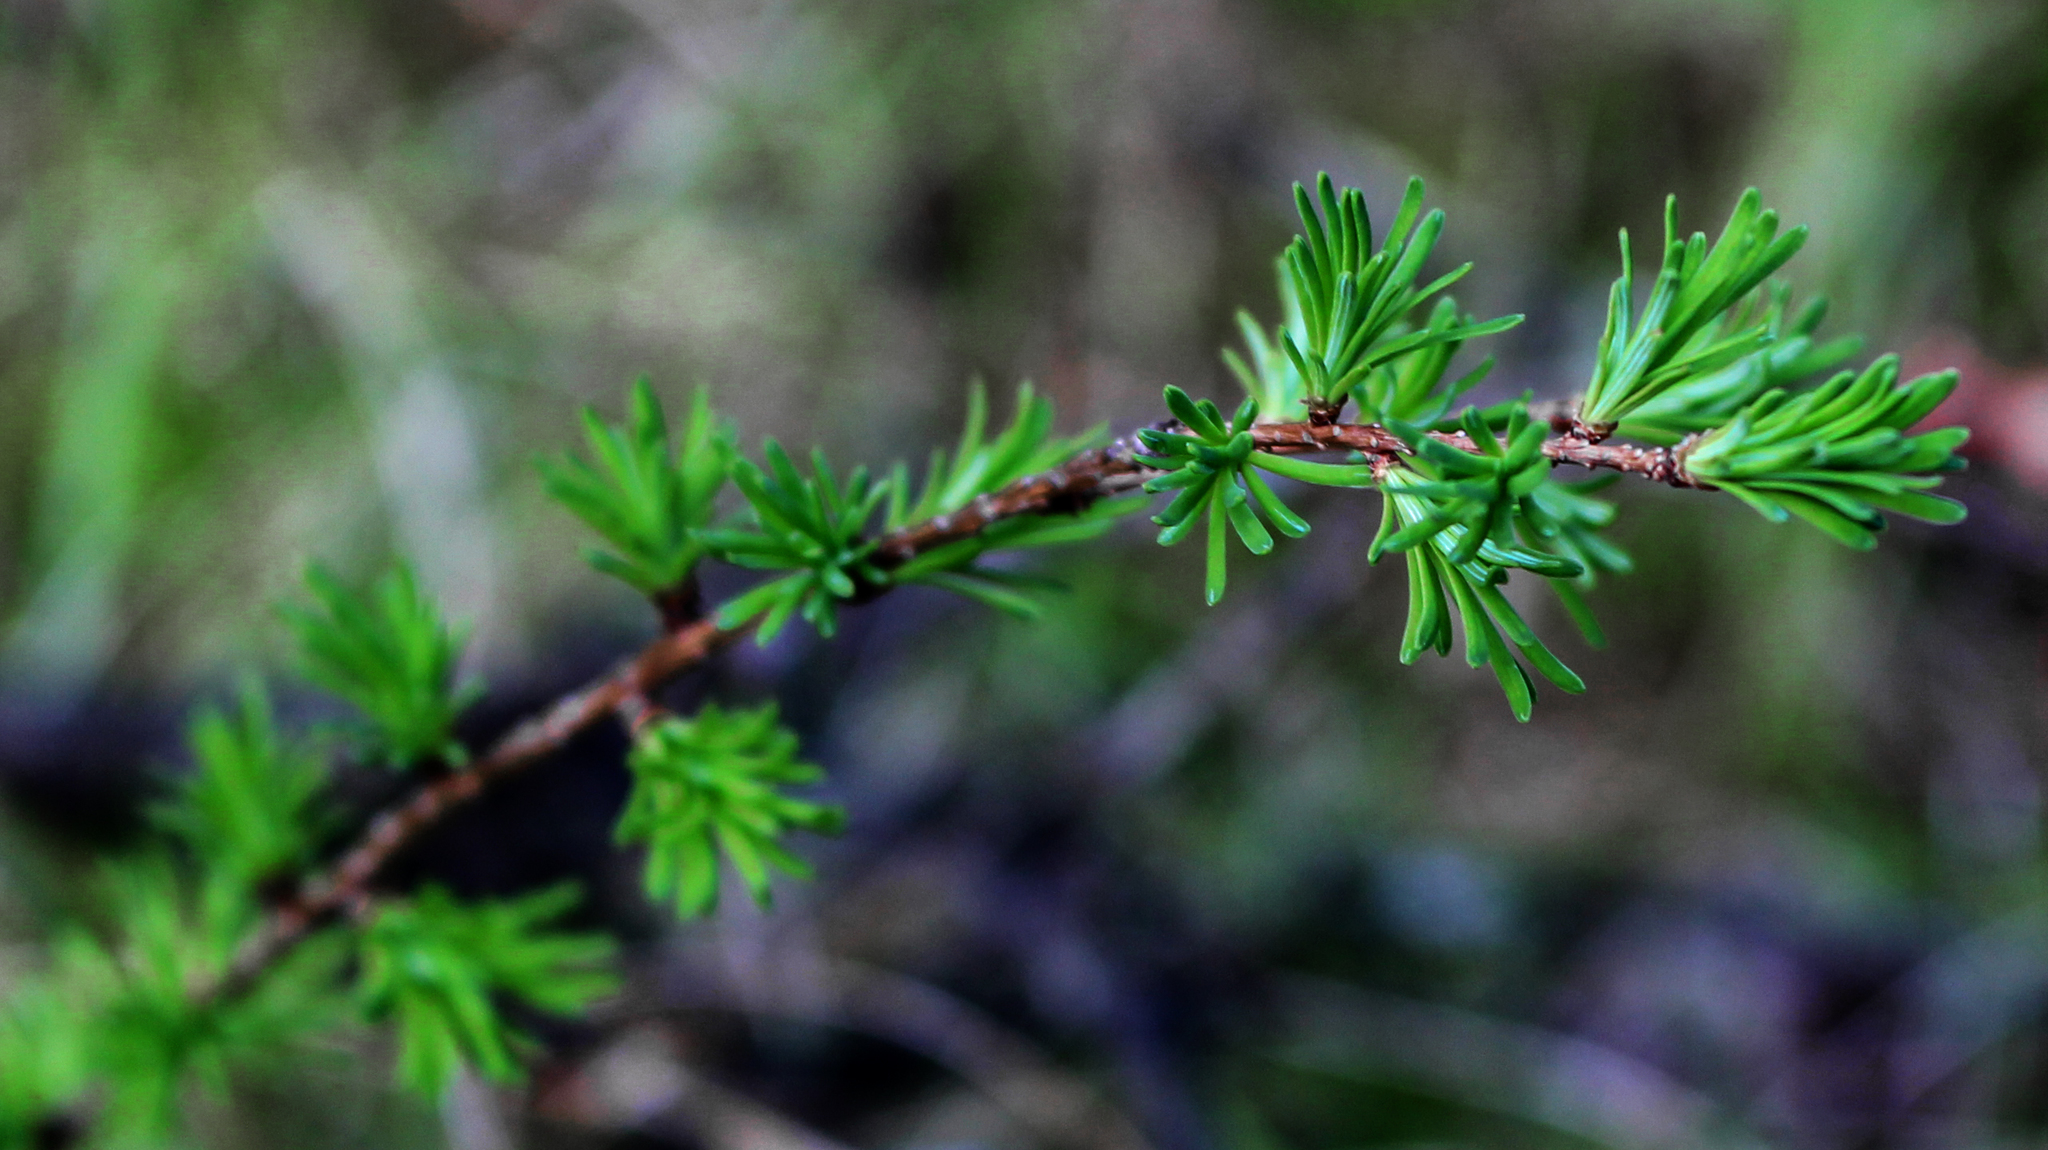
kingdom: Plantae
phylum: Tracheophyta
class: Pinopsida
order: Pinales
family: Pinaceae
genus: Larix
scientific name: Larix laricina
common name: American larch
